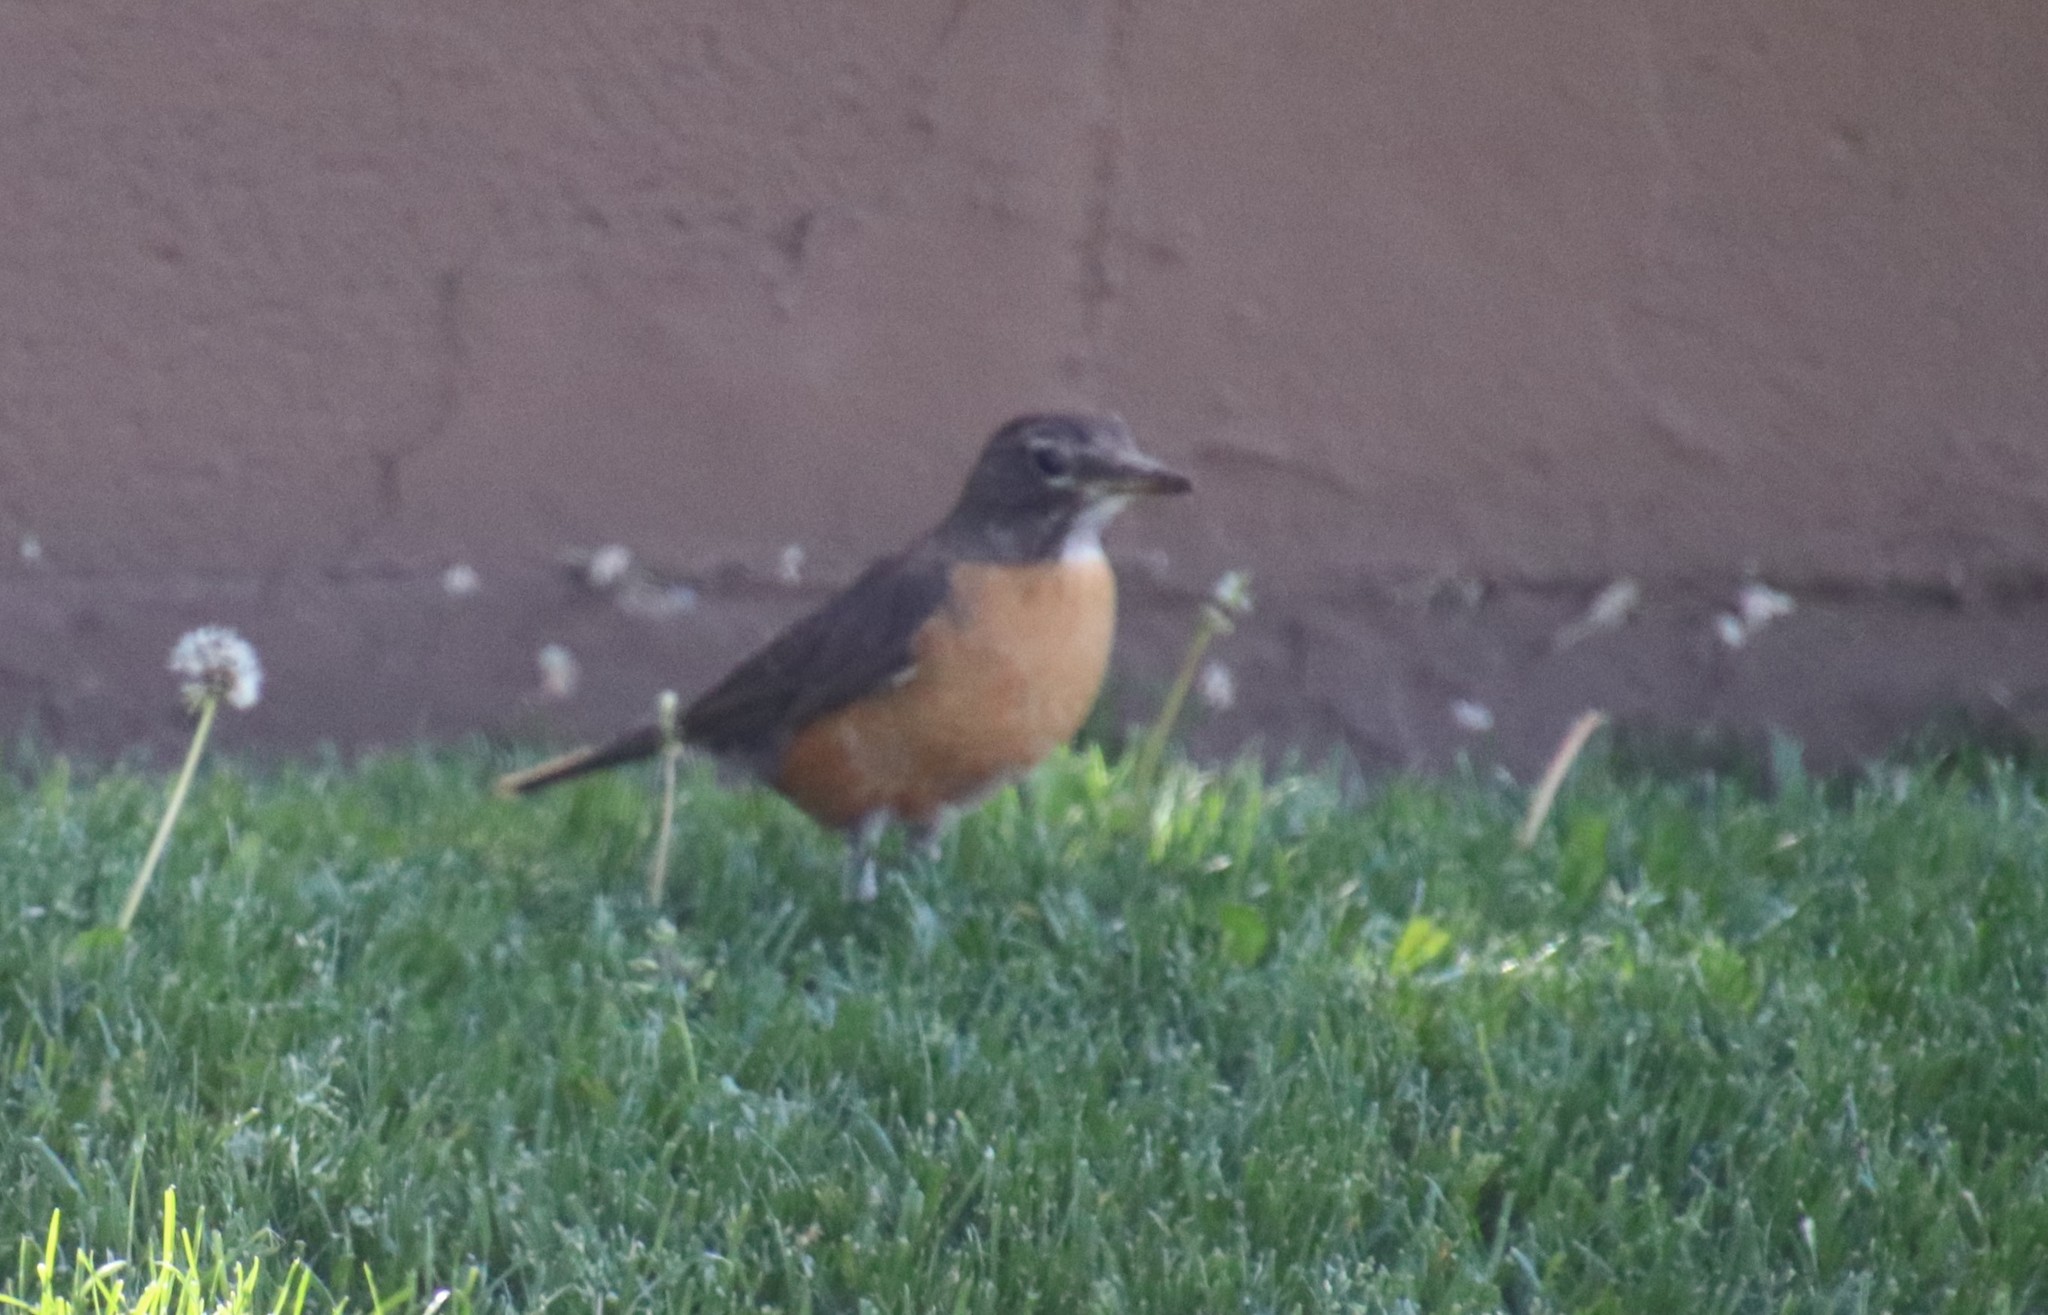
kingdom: Animalia
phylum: Chordata
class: Aves
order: Passeriformes
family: Turdidae
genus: Turdus
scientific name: Turdus migratorius
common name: American robin
